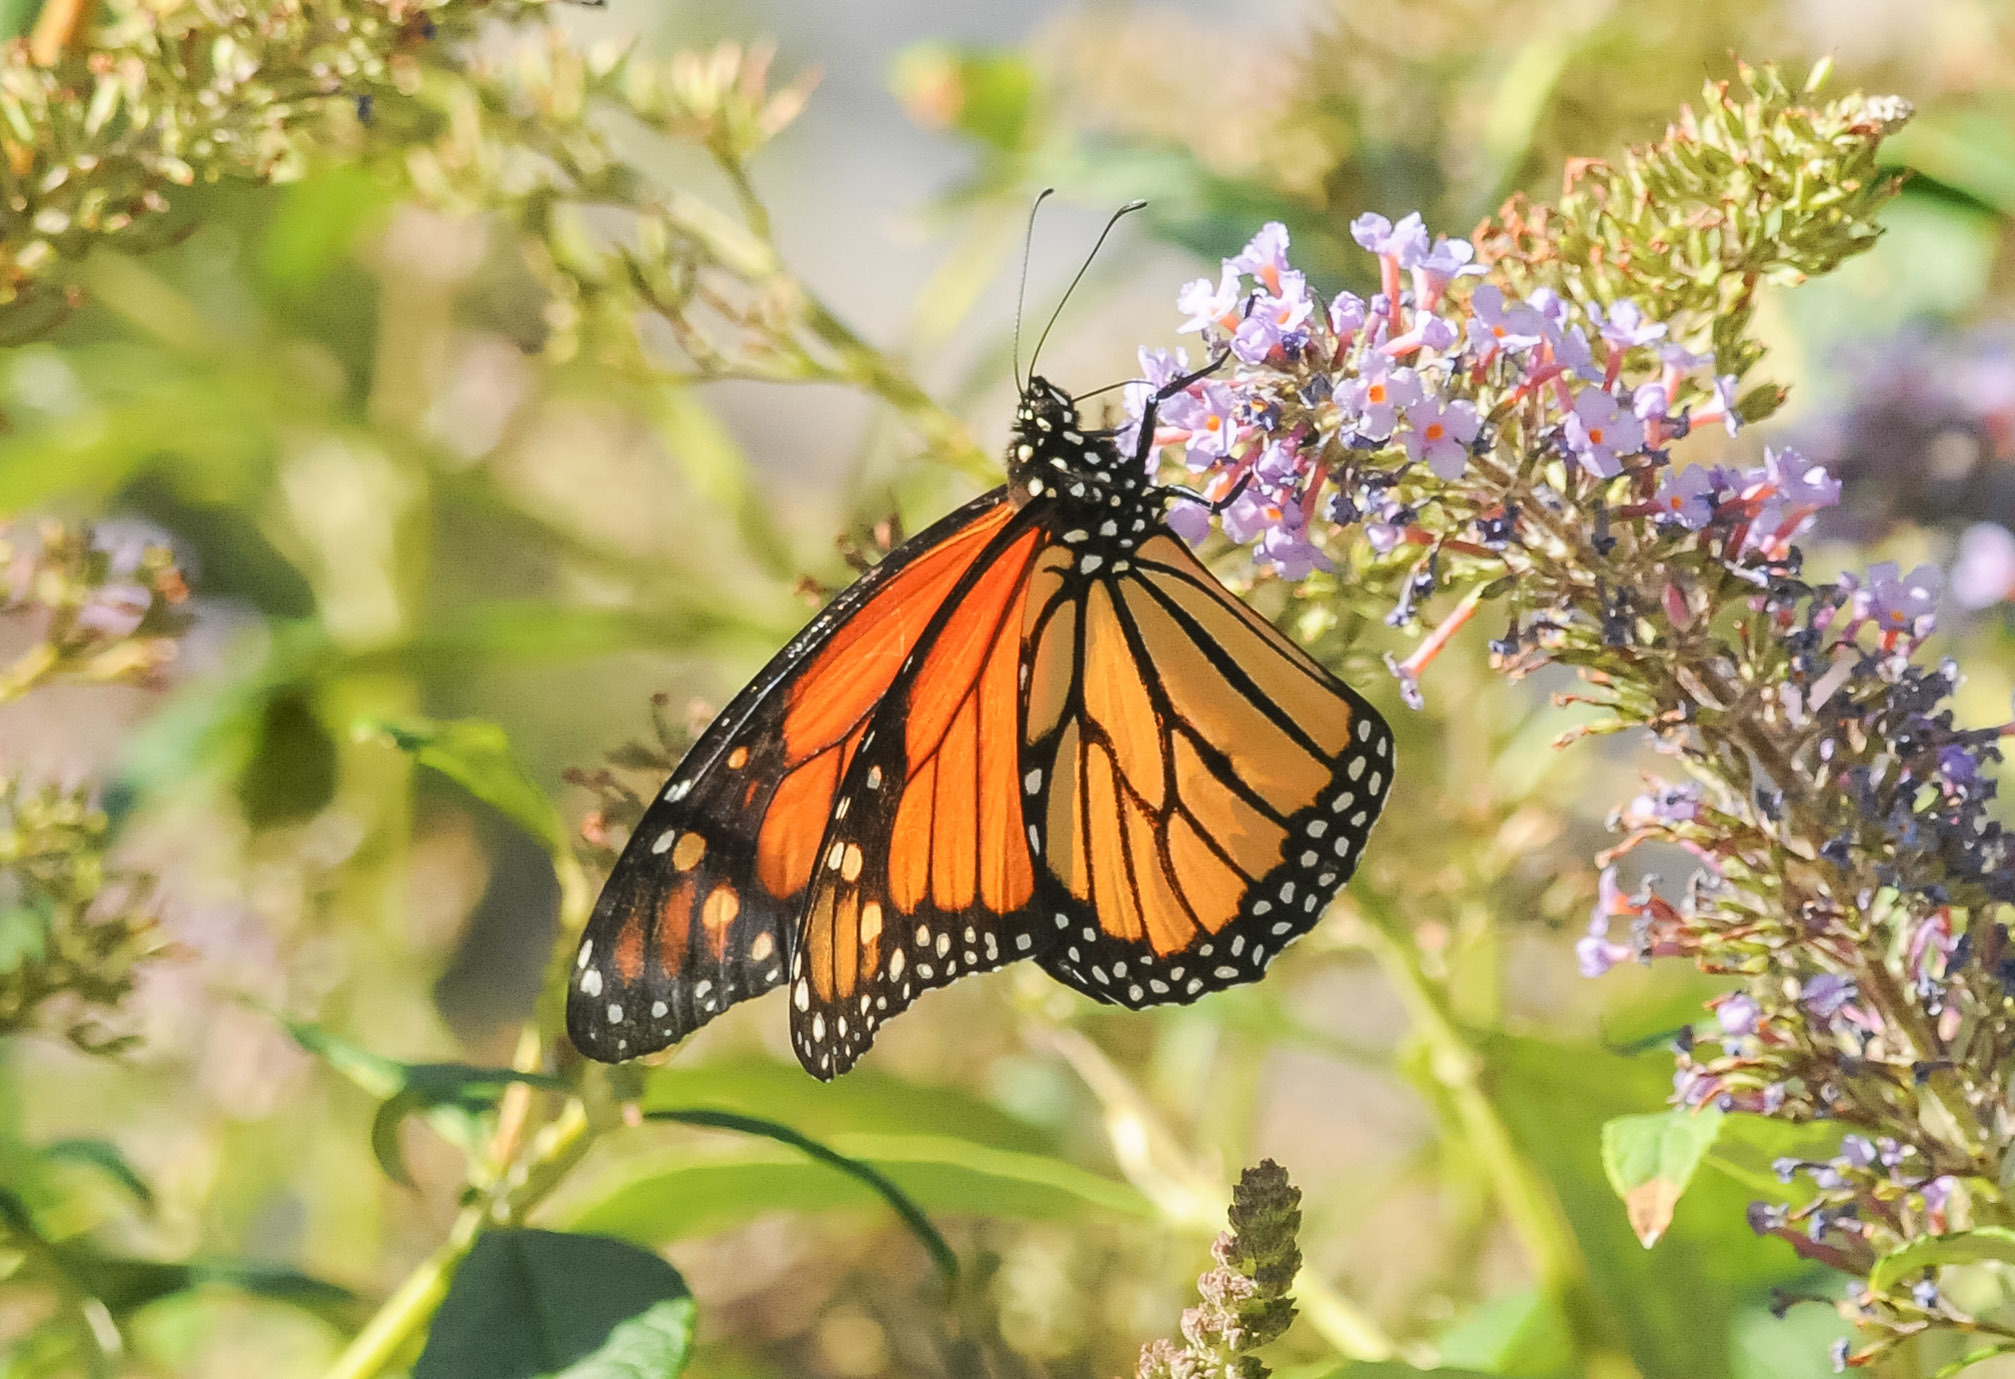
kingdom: Animalia
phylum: Arthropoda
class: Insecta
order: Lepidoptera
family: Nymphalidae
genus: Danaus
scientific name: Danaus plexippus
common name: Monarch
